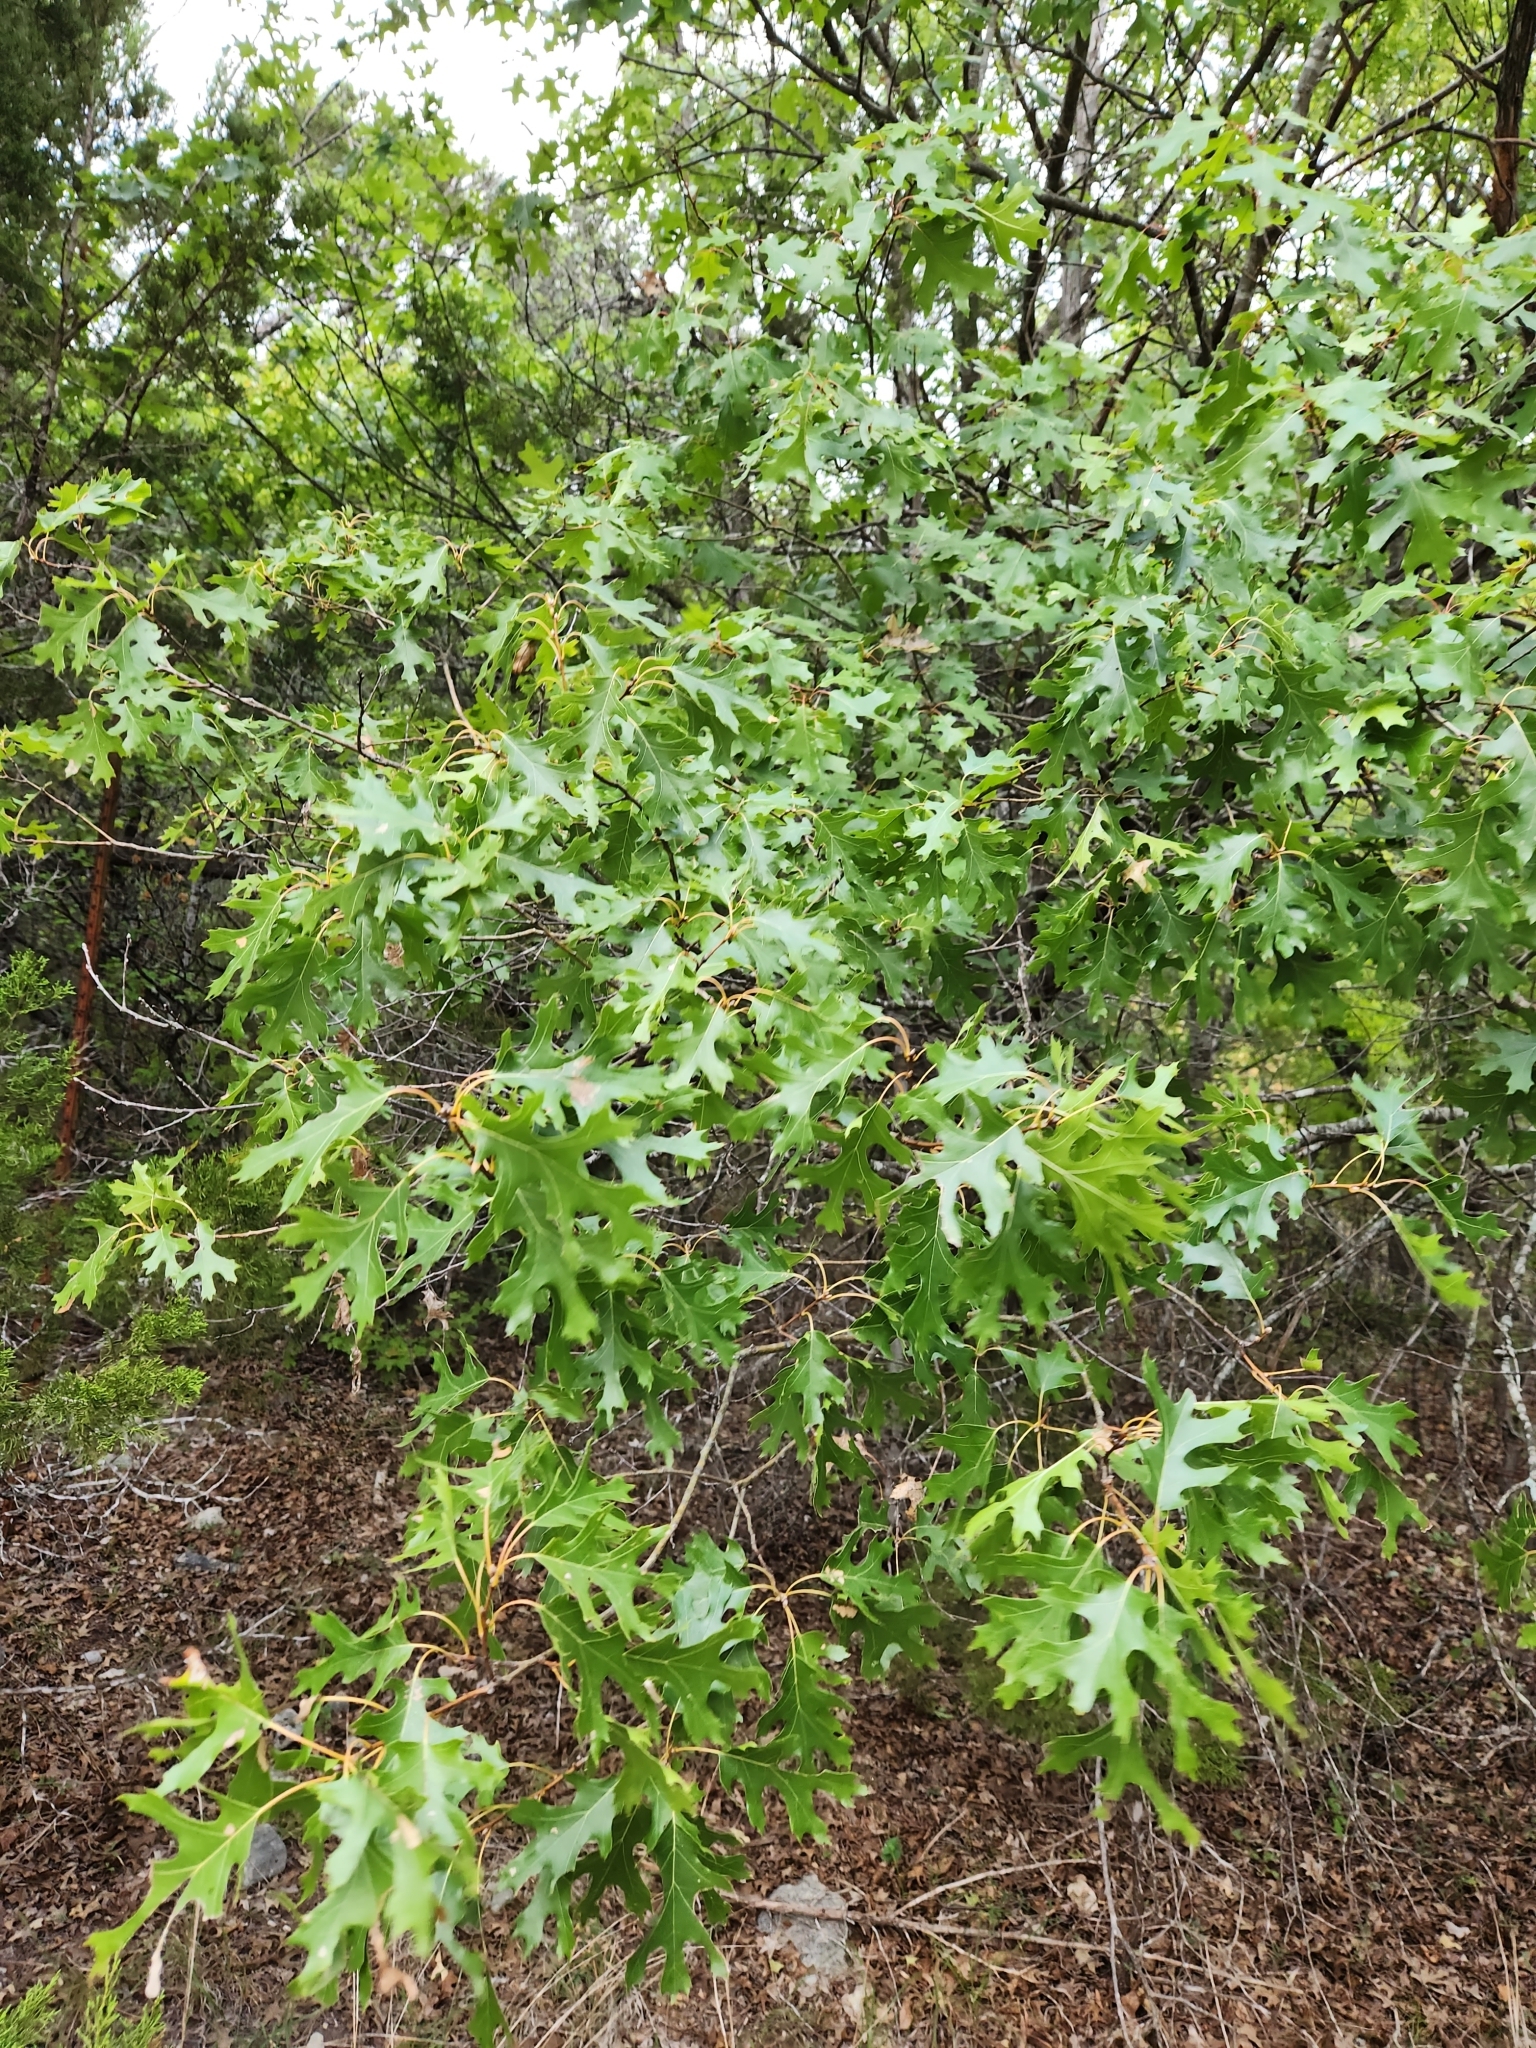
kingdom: Plantae
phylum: Tracheophyta
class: Magnoliopsida
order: Fagales
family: Fagaceae
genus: Quercus
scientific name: Quercus buckleyi
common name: Buckley oak
